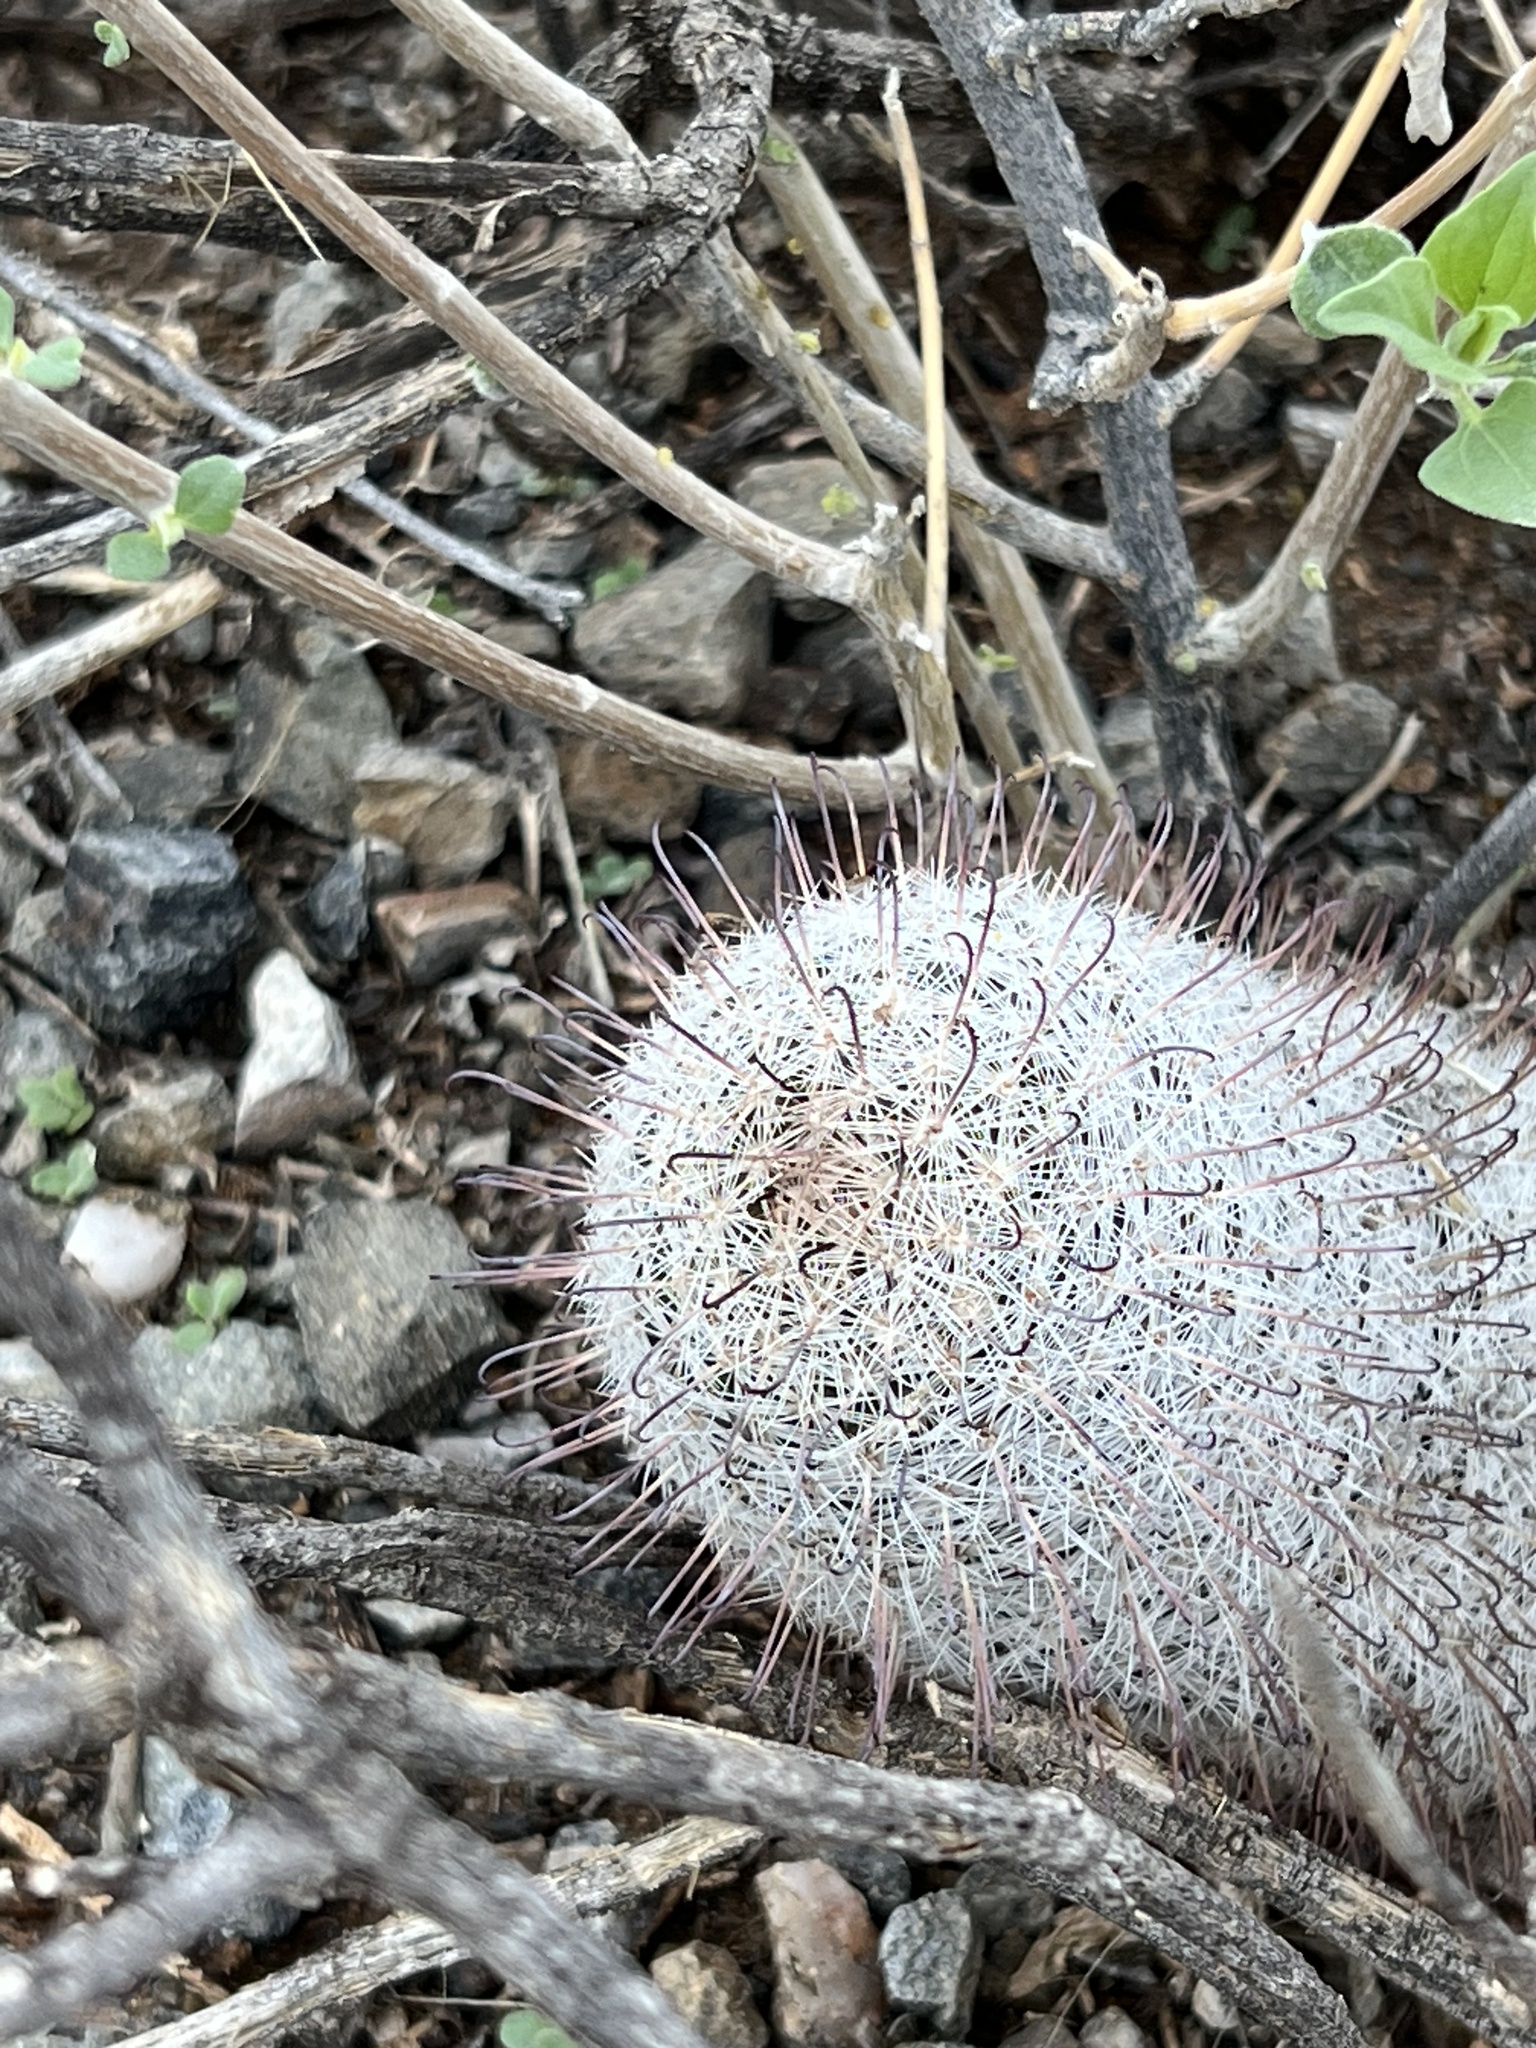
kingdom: Plantae
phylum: Tracheophyta
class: Magnoliopsida
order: Caryophyllales
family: Cactaceae
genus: Cochemiea
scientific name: Cochemiea grahamii
